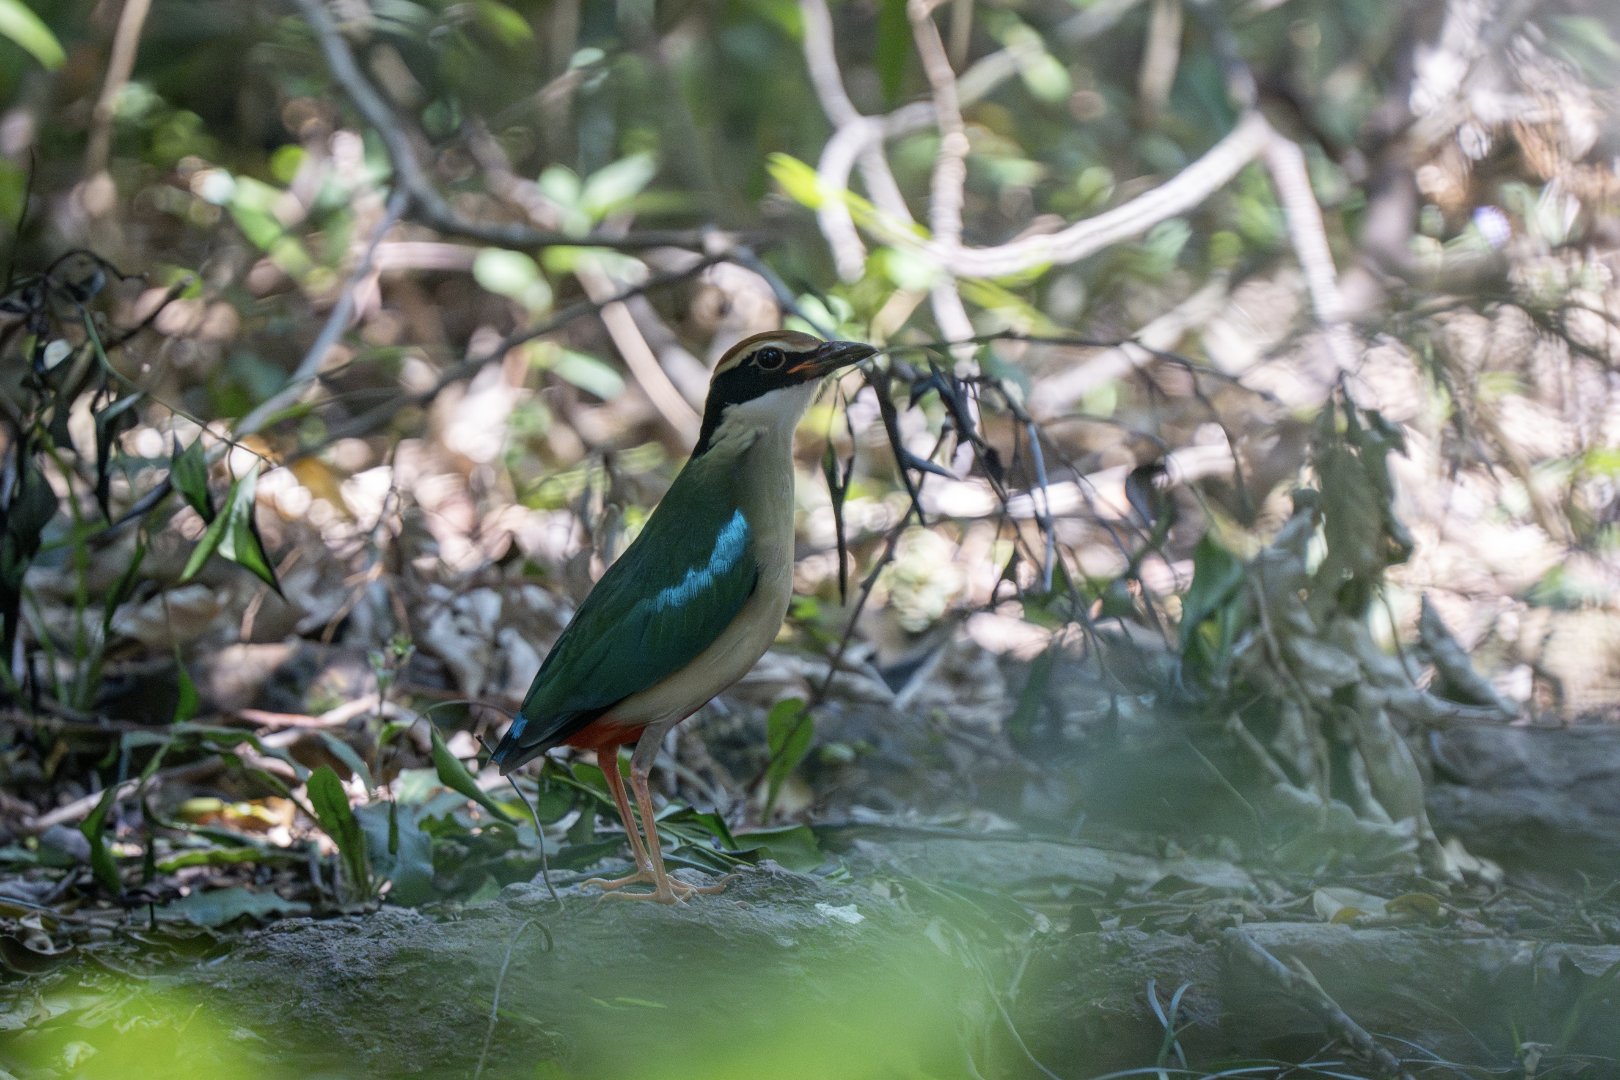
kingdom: Animalia
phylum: Chordata
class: Aves
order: Passeriformes
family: Pittidae
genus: Pitta
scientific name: Pitta nympha
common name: Fairy pitta
